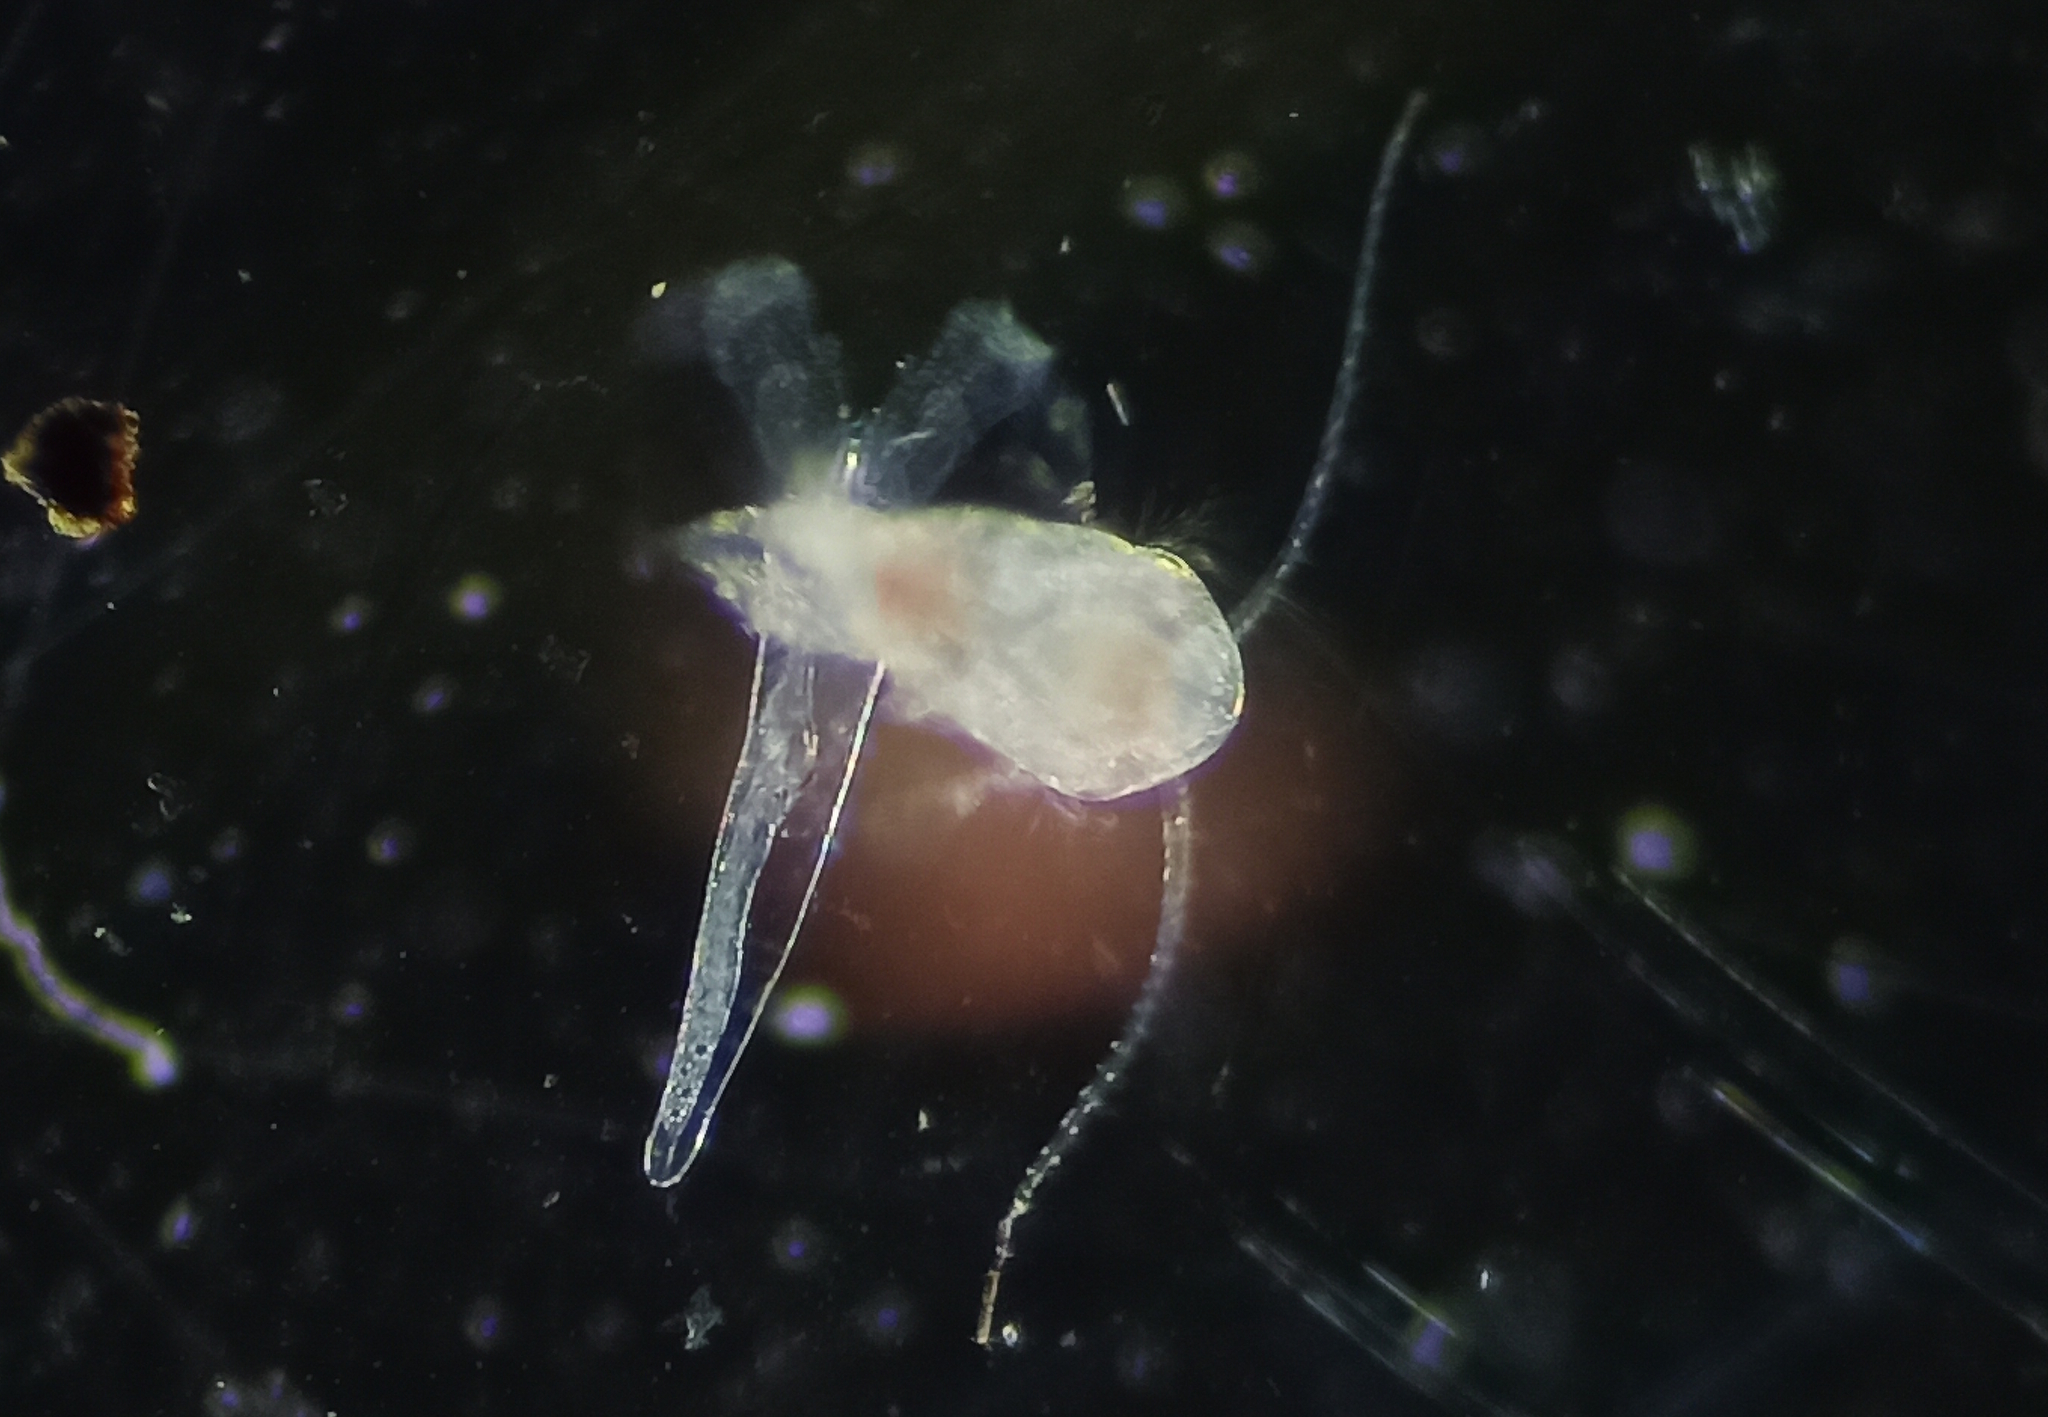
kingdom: Animalia
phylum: Arthropoda
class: Copepoda
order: Calanoida
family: Temoridae
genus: Temora
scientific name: Temora turbinata
